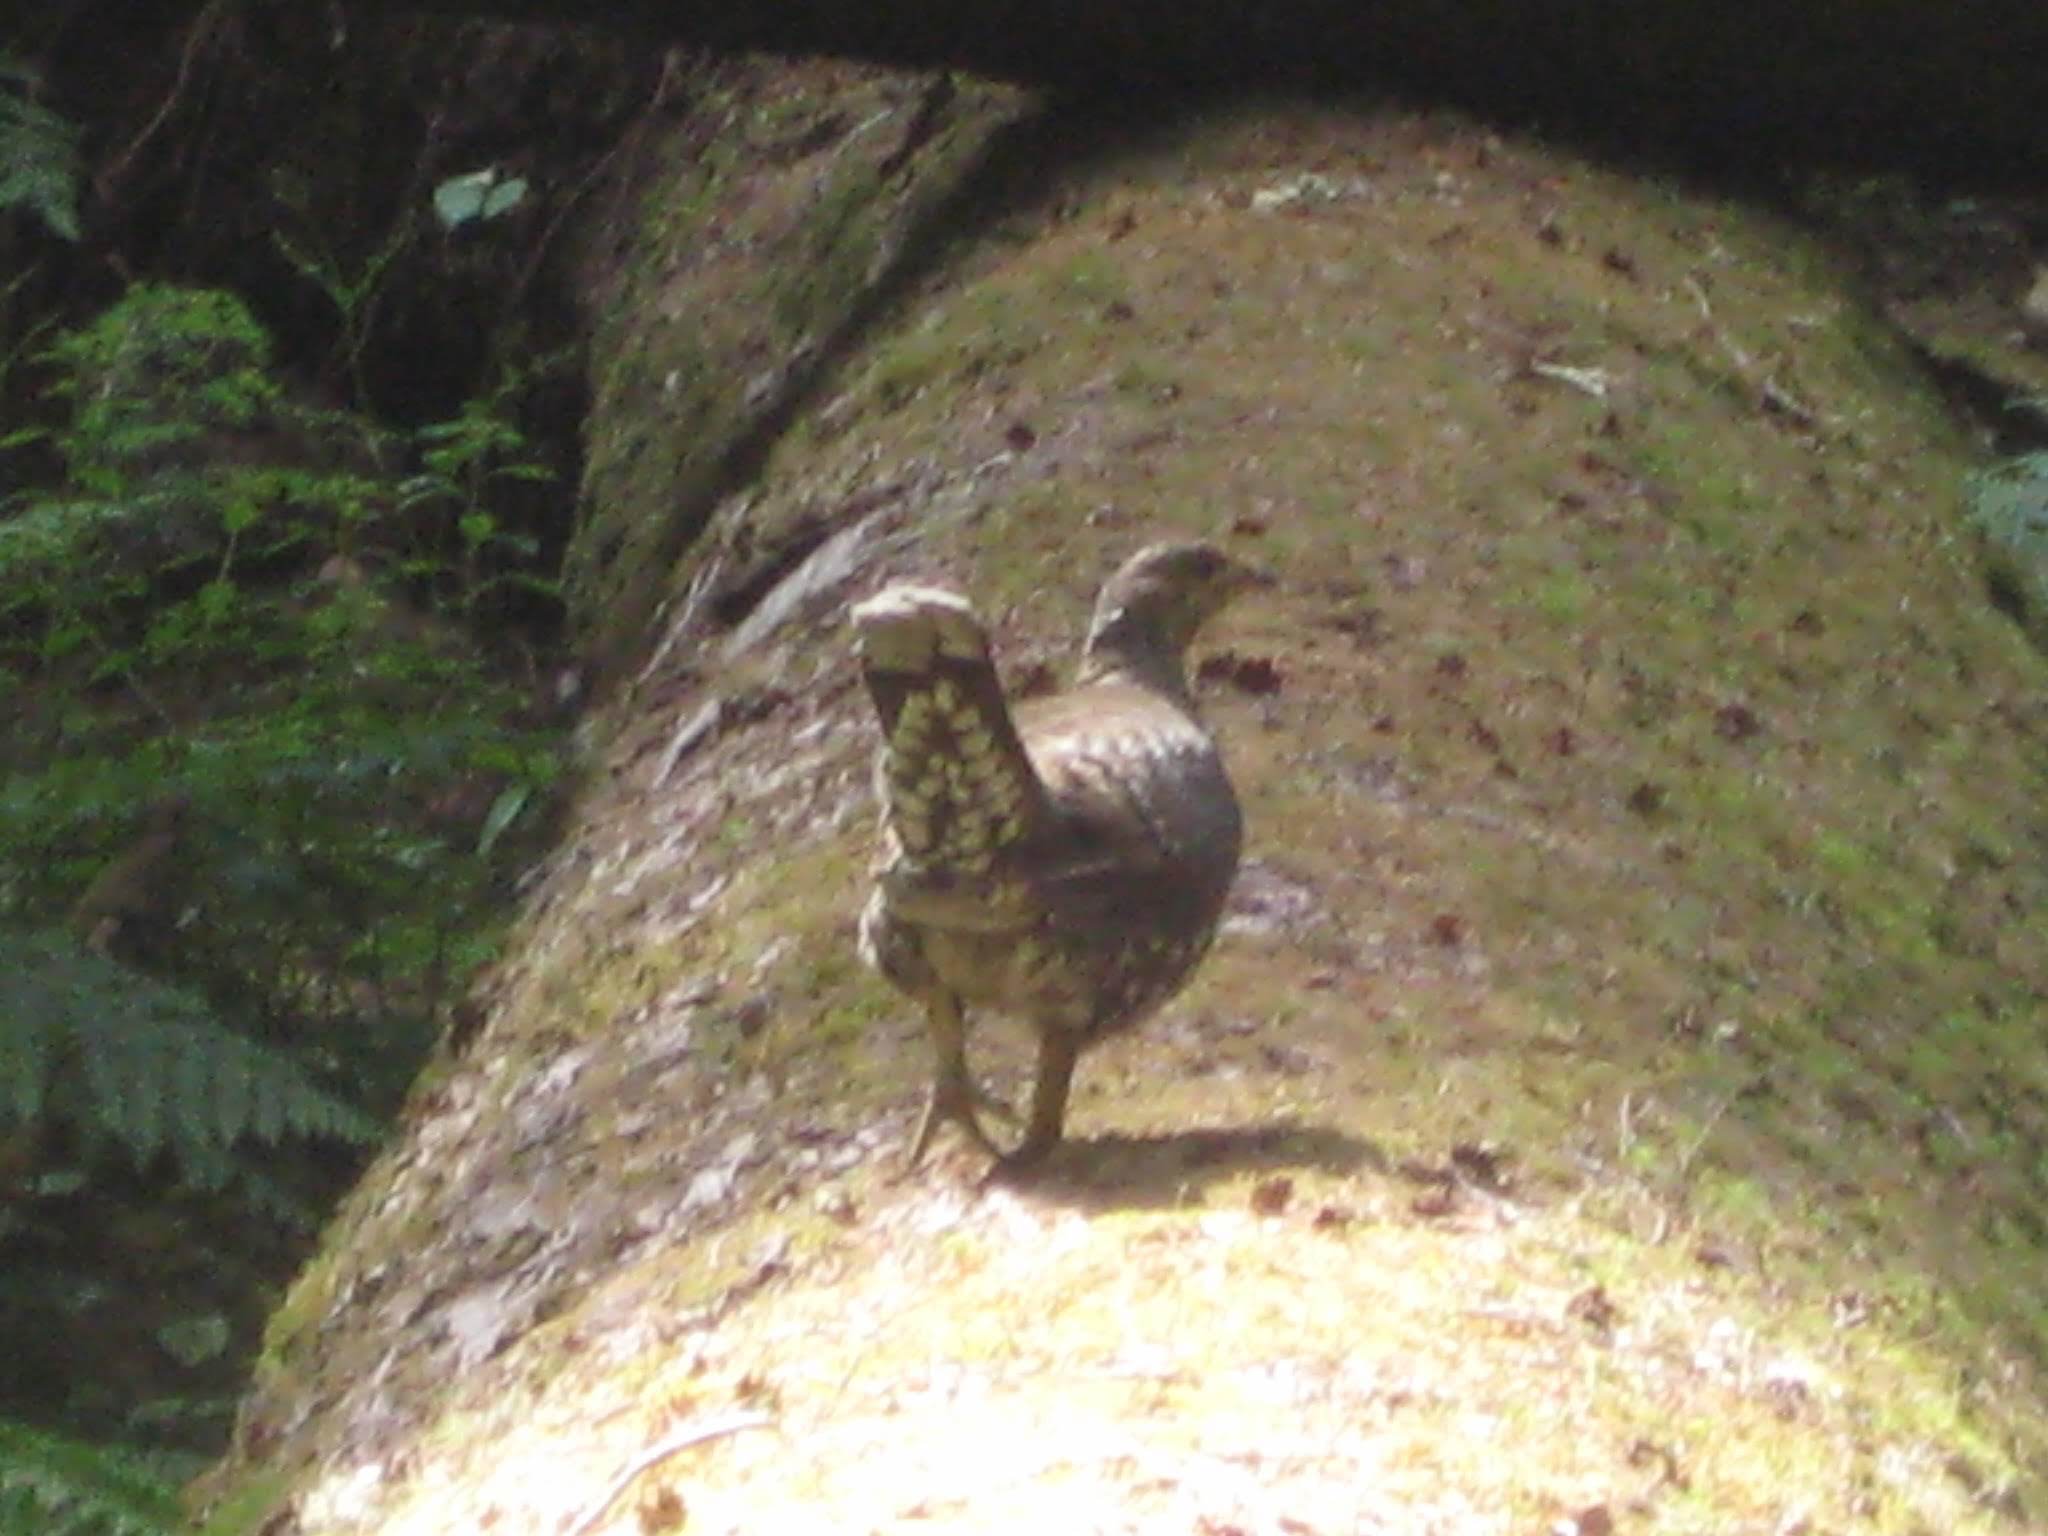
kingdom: Animalia
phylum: Chordata
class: Aves
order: Galliformes
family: Phasianidae
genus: Dendragapus
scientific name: Dendragapus fuliginosus
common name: Sooty grouse
